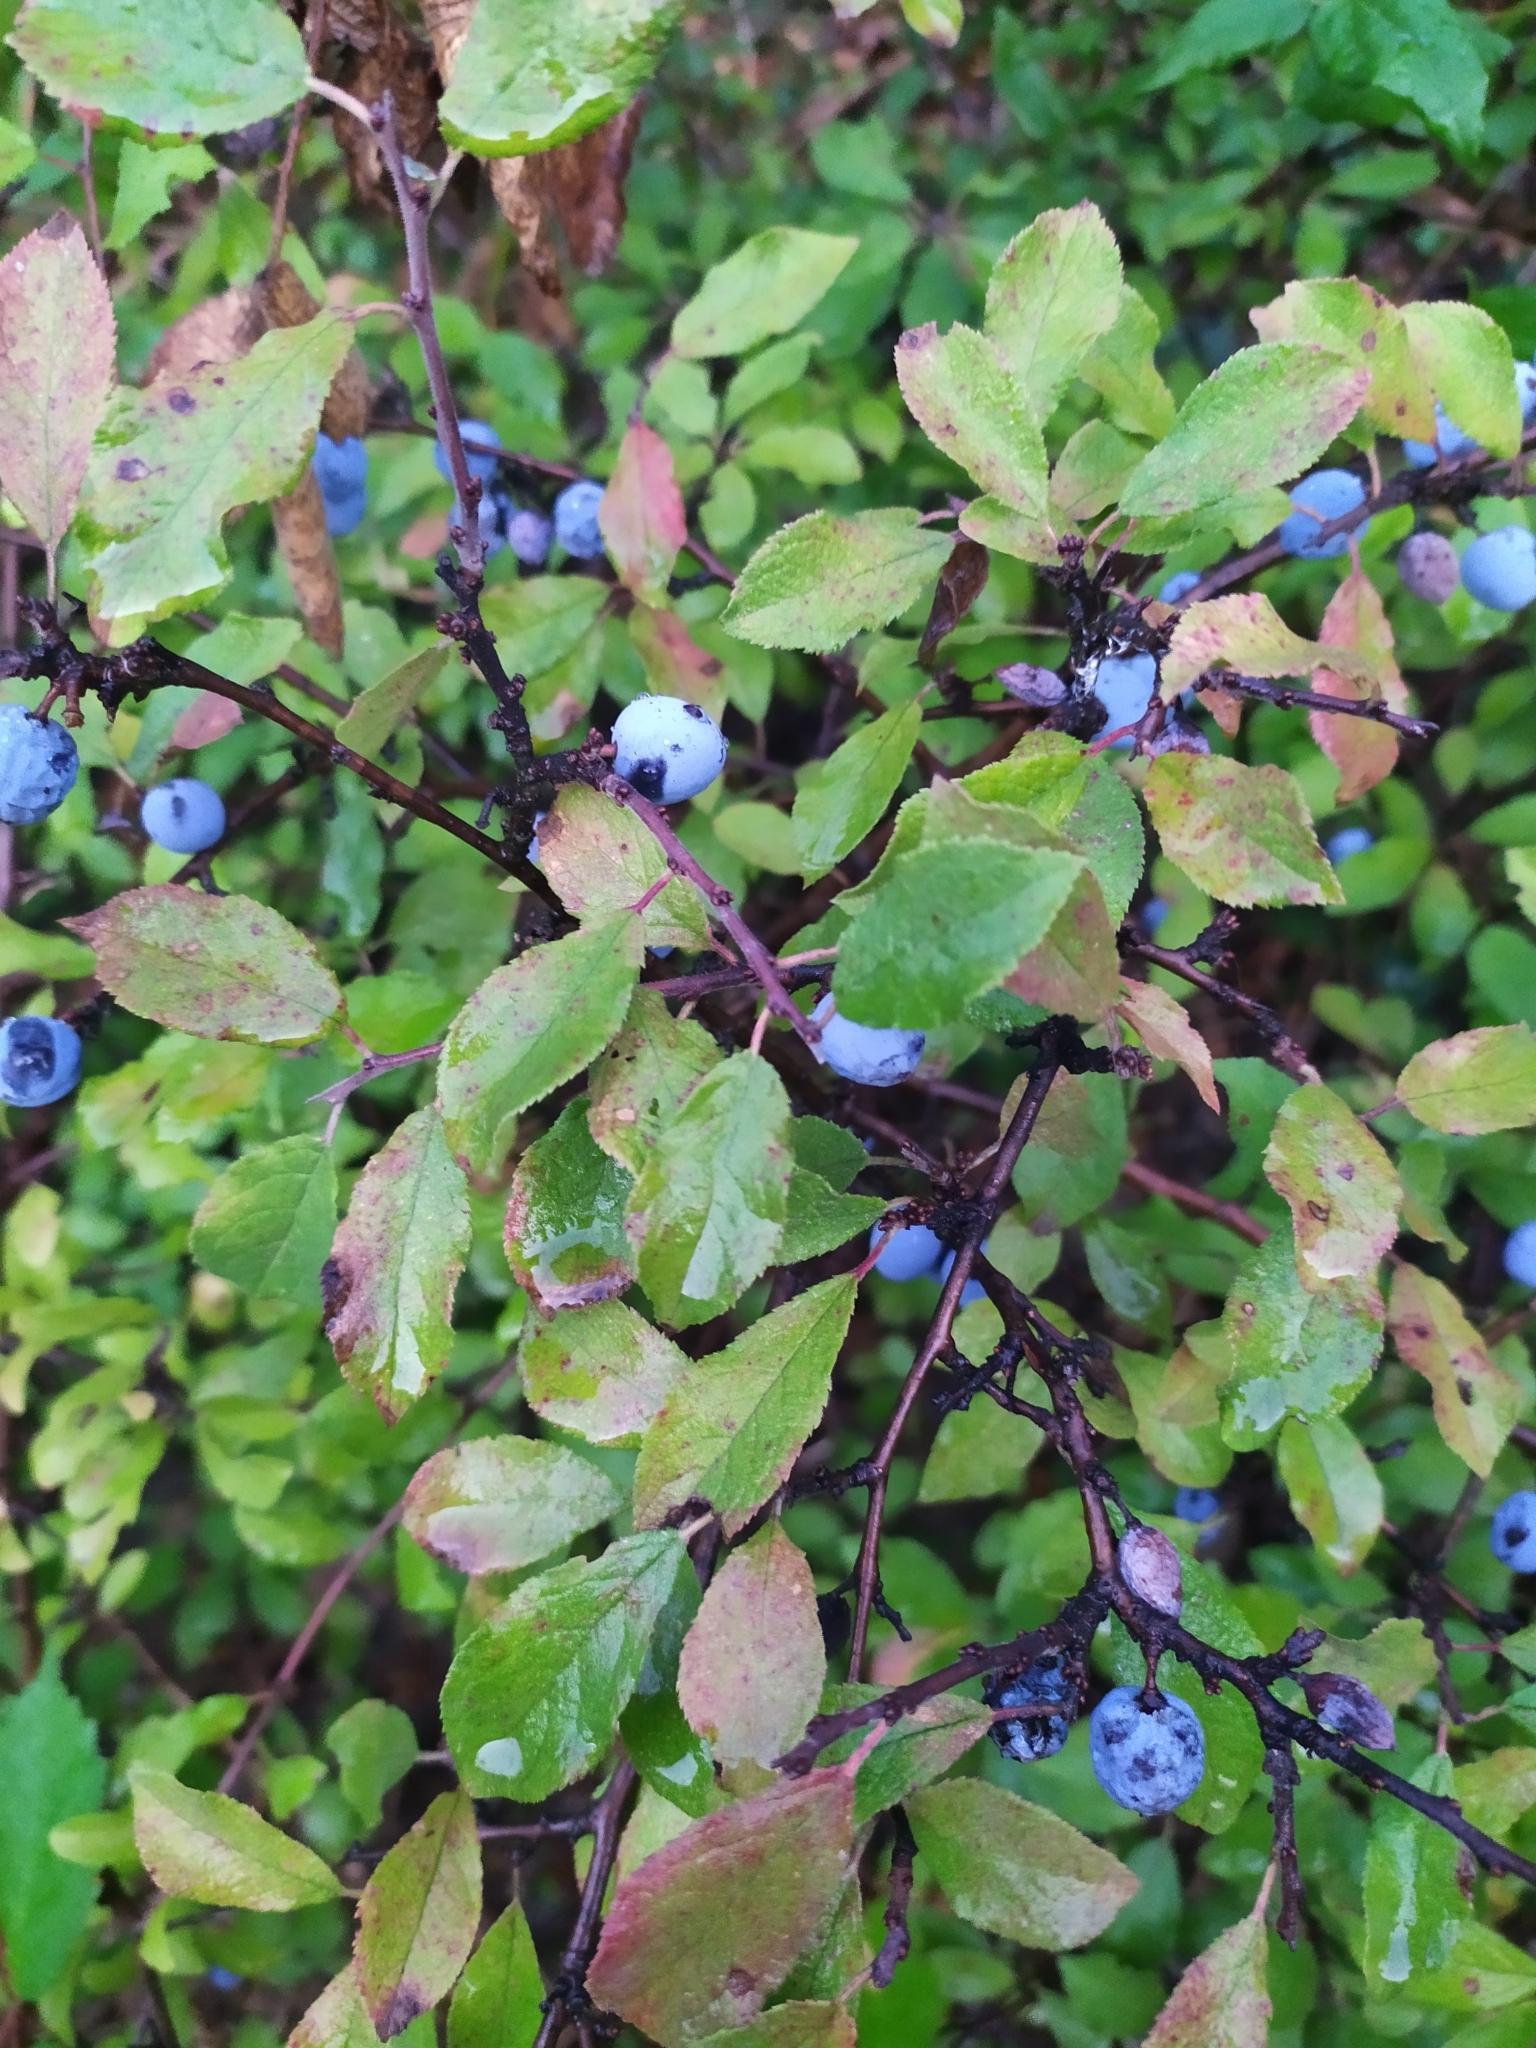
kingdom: Plantae
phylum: Tracheophyta
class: Magnoliopsida
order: Rosales
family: Rosaceae
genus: Prunus
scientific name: Prunus spinosa
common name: Blackthorn
